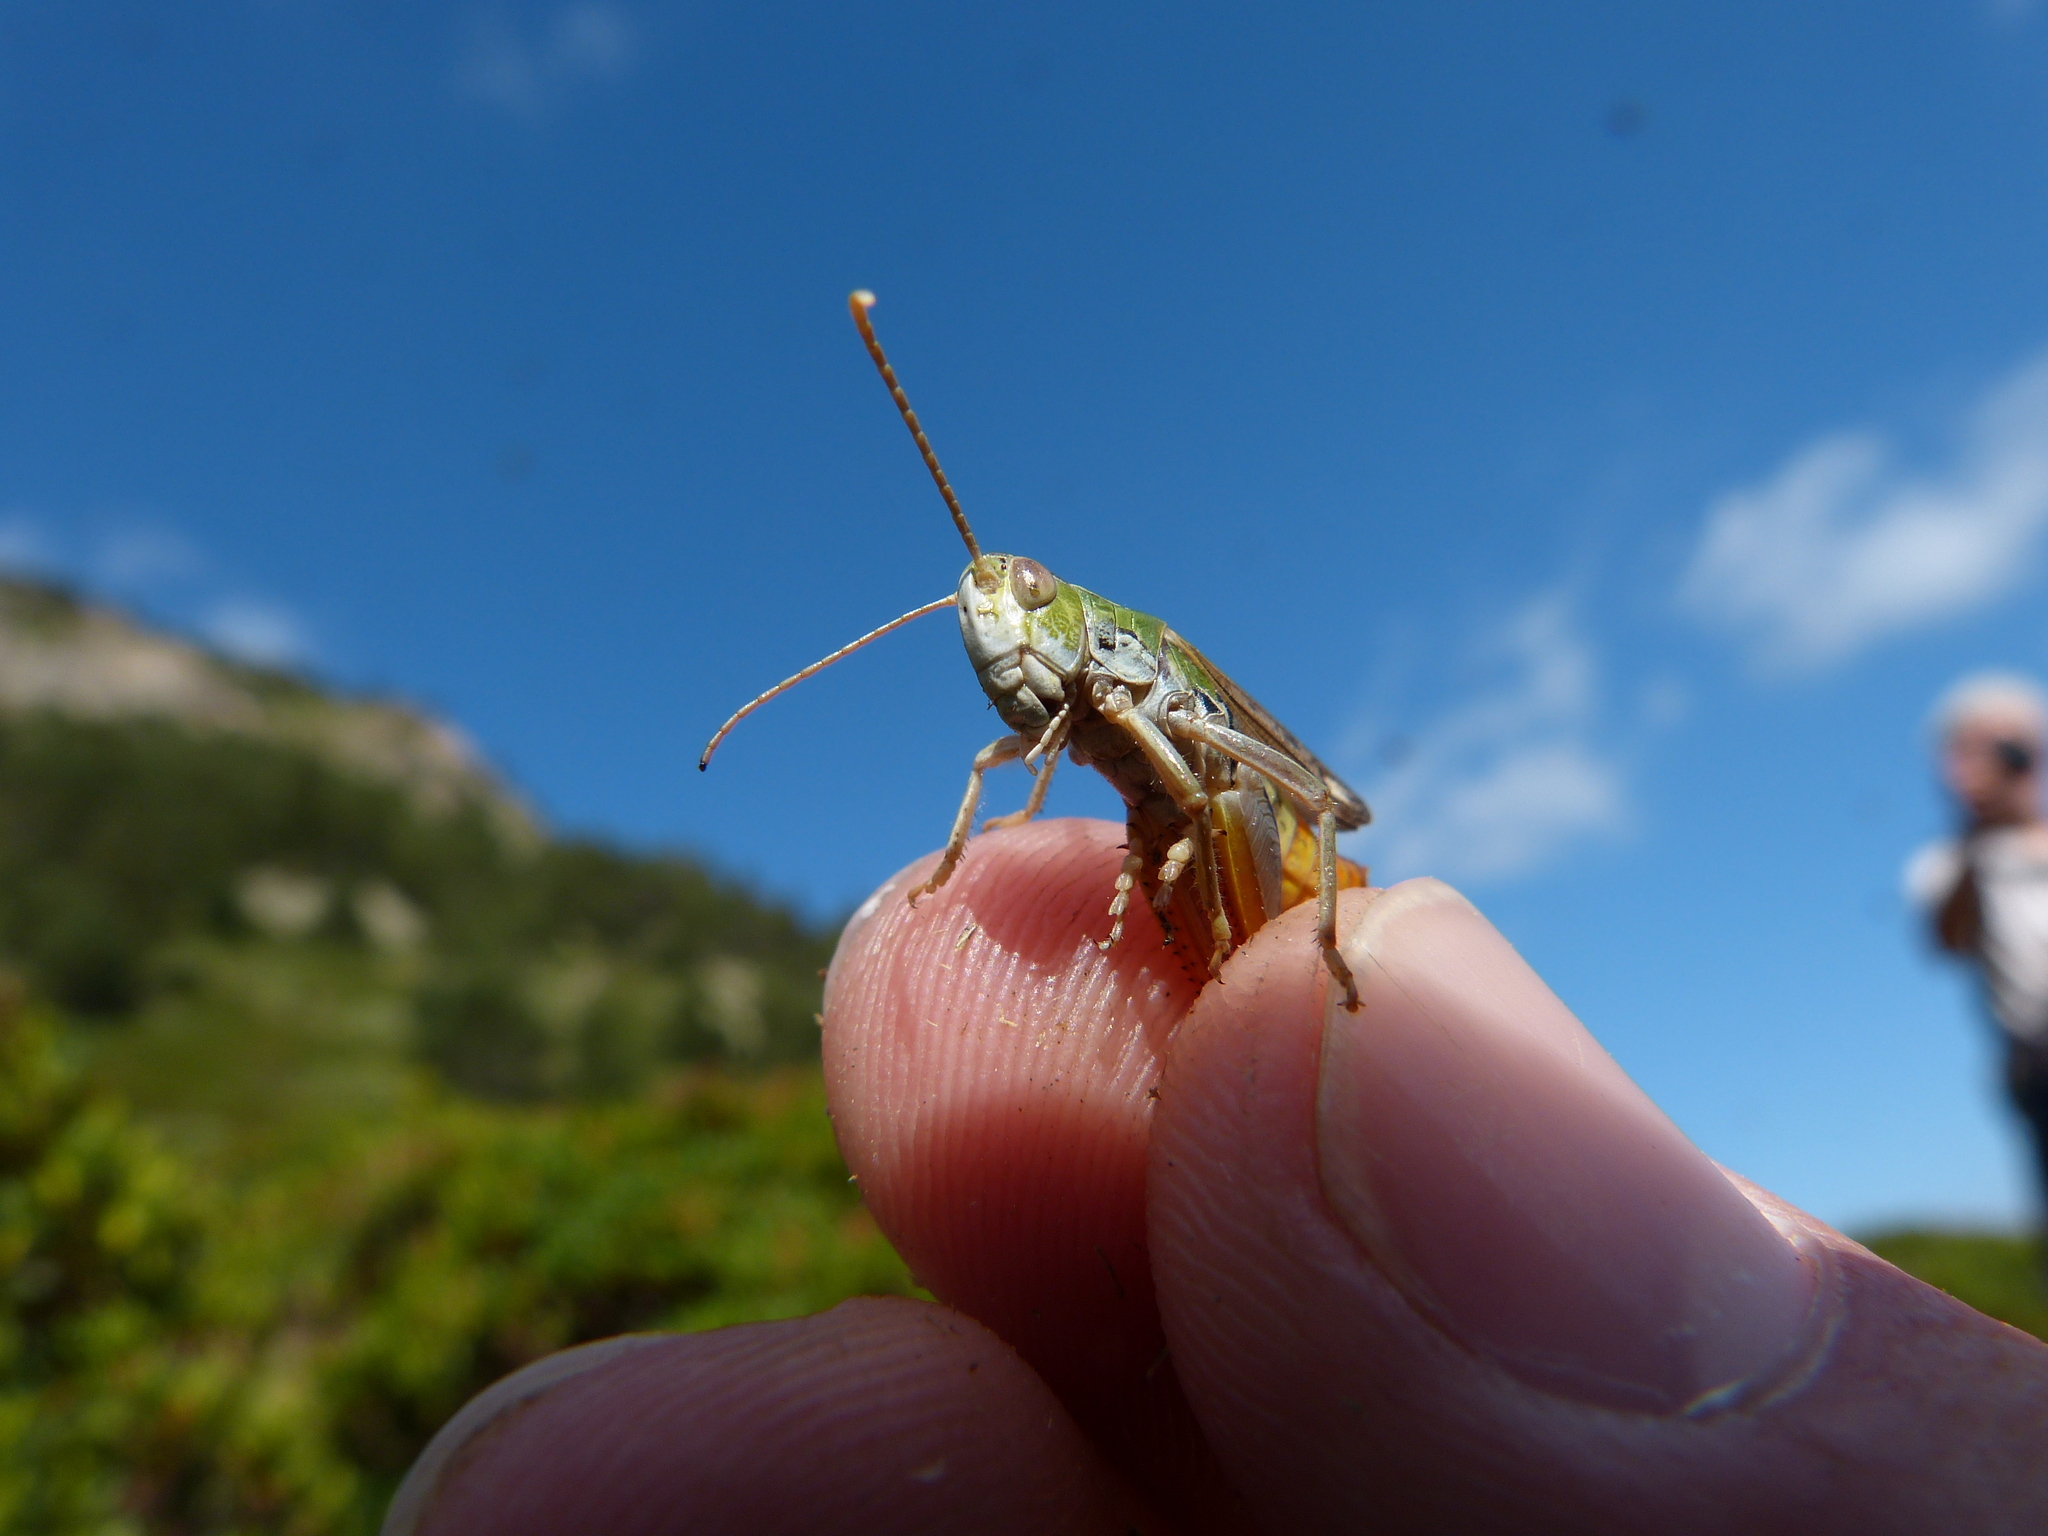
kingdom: Animalia
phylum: Arthropoda
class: Insecta
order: Orthoptera
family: Acrididae
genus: Stenobothrus
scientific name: Stenobothrus nigromaculatus
